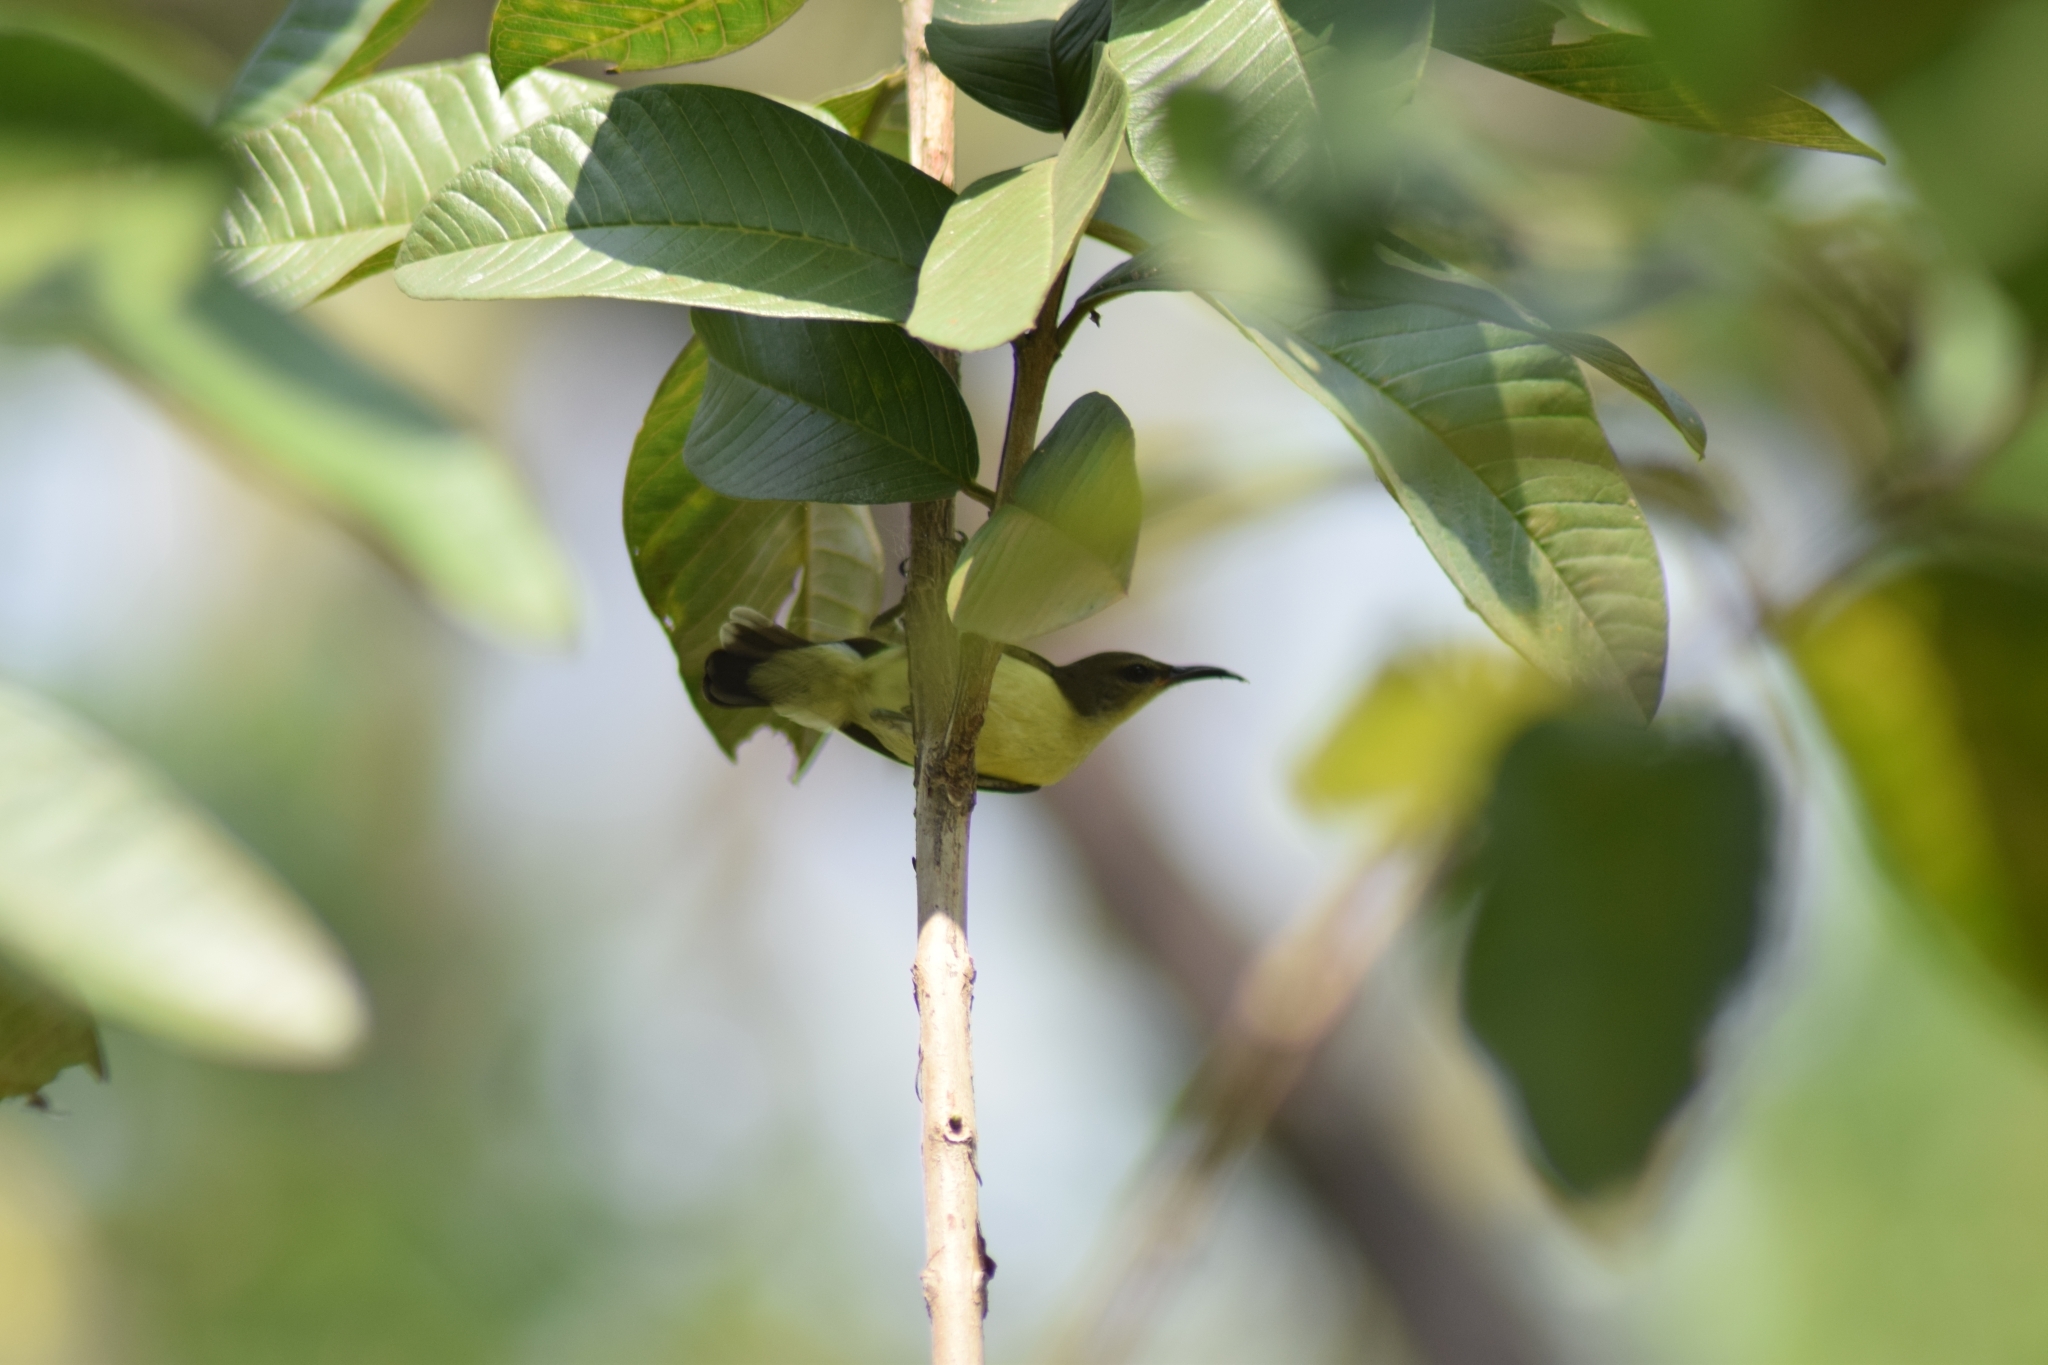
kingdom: Animalia
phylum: Chordata
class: Aves
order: Passeriformes
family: Nectariniidae
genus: Leptocoma
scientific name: Leptocoma zeylonica
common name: Purple-rumped sunbird
